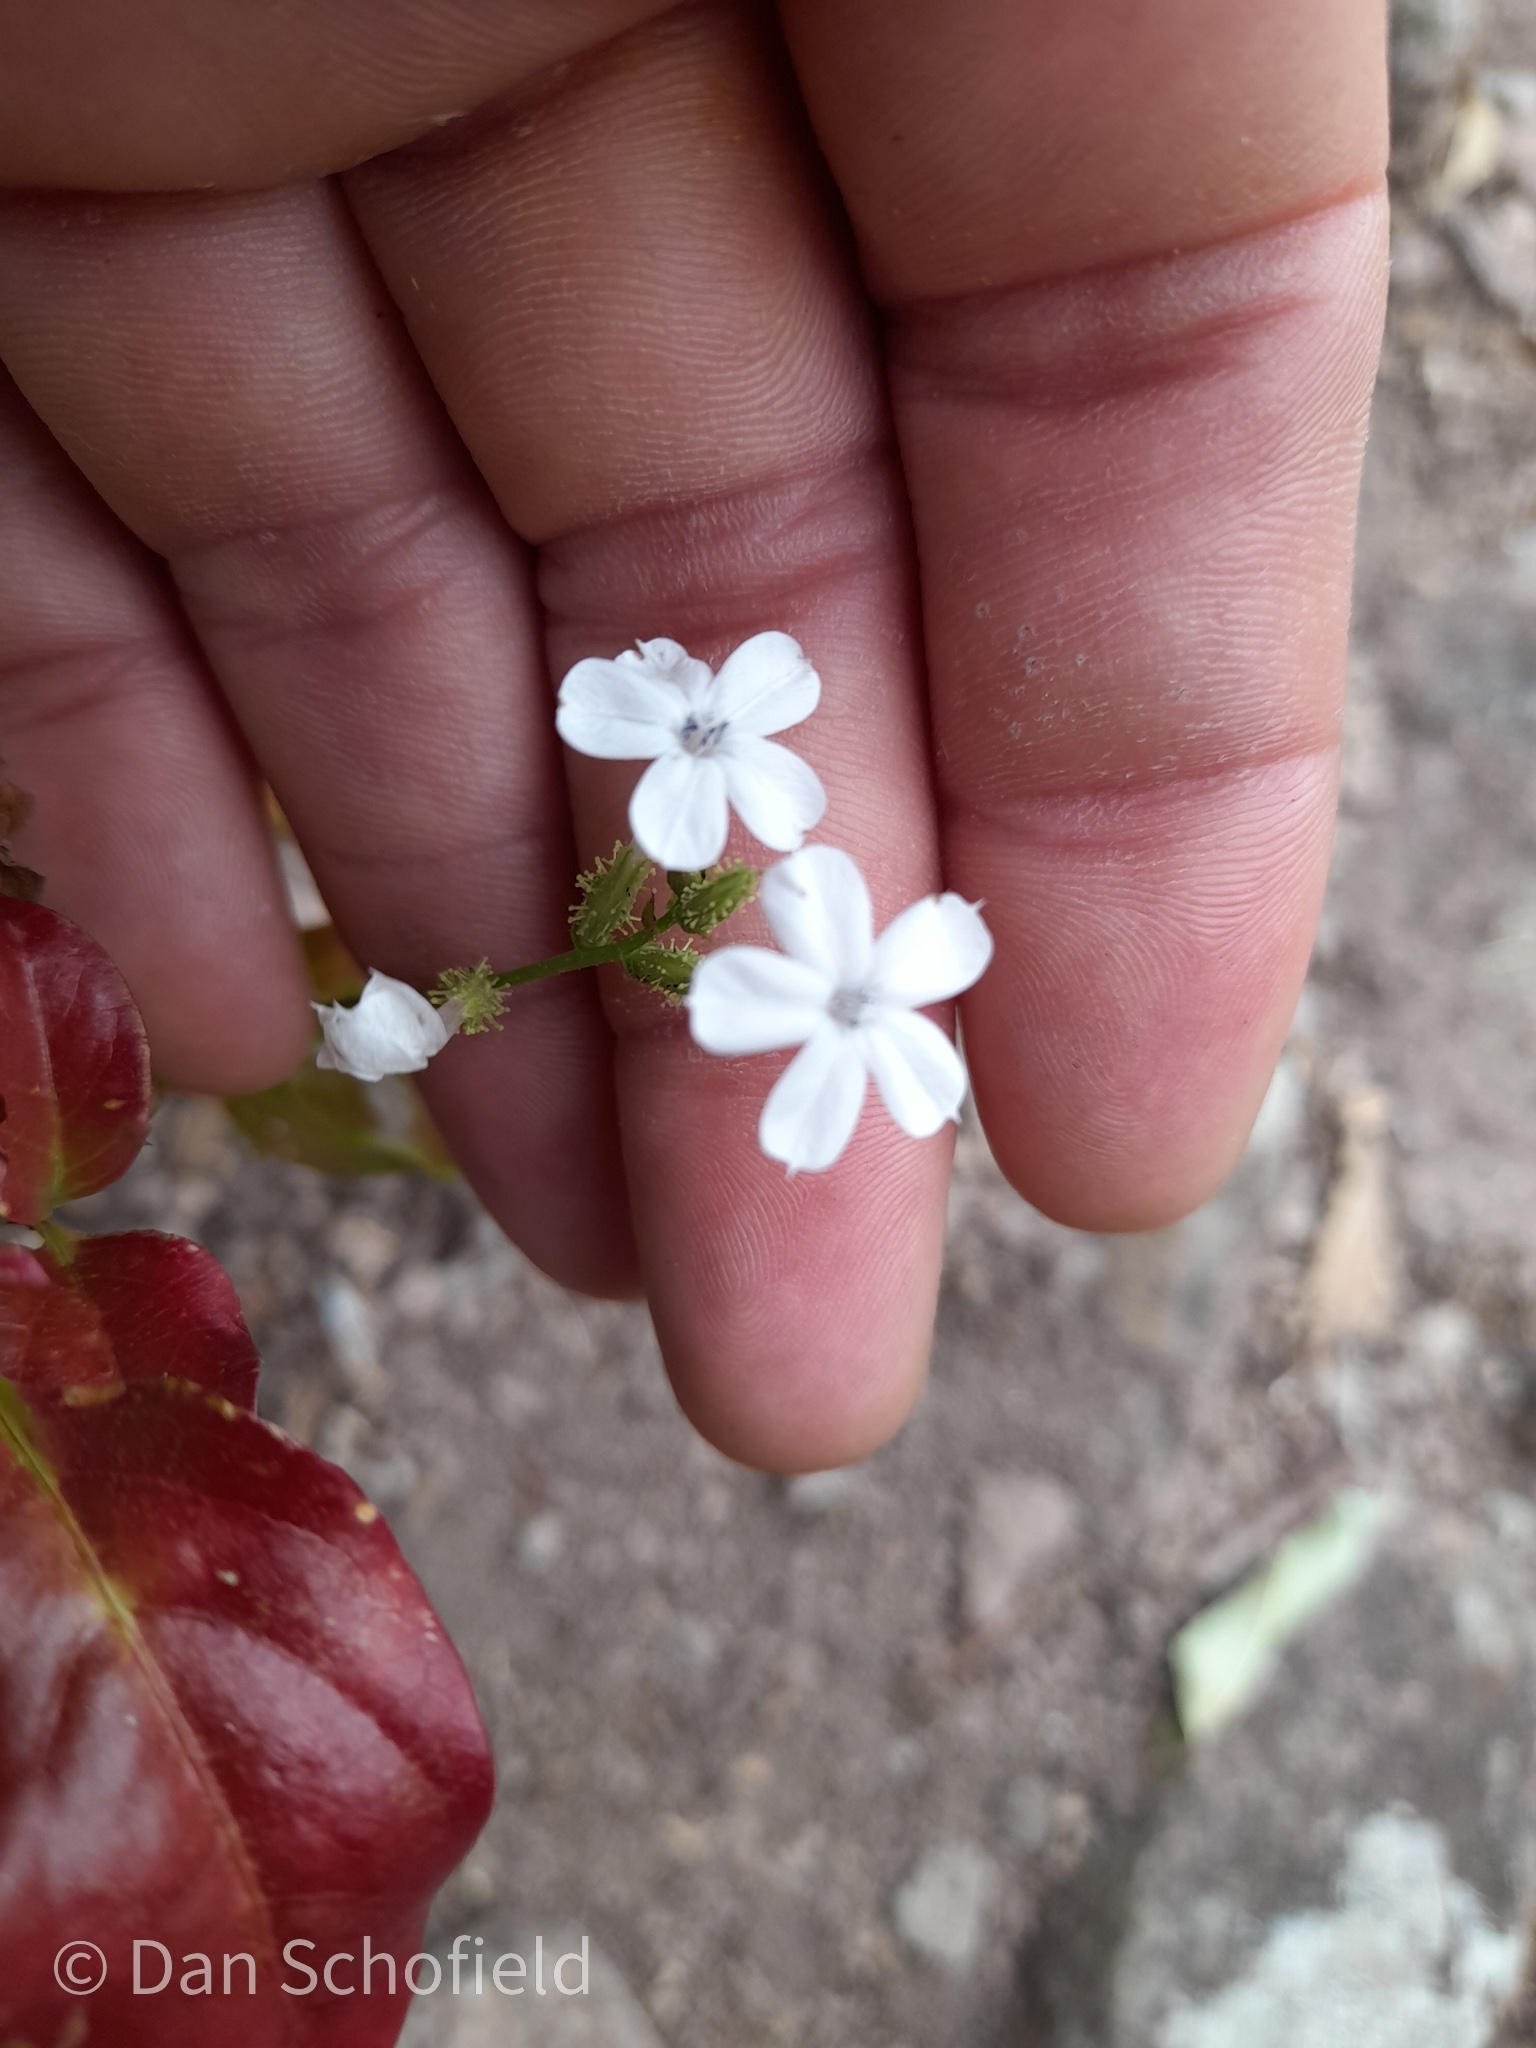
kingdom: Plantae
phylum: Tracheophyta
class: Magnoliopsida
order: Caryophyllales
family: Plumbaginaceae
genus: Plumbago
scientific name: Plumbago zeylanica
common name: Doctorbush
